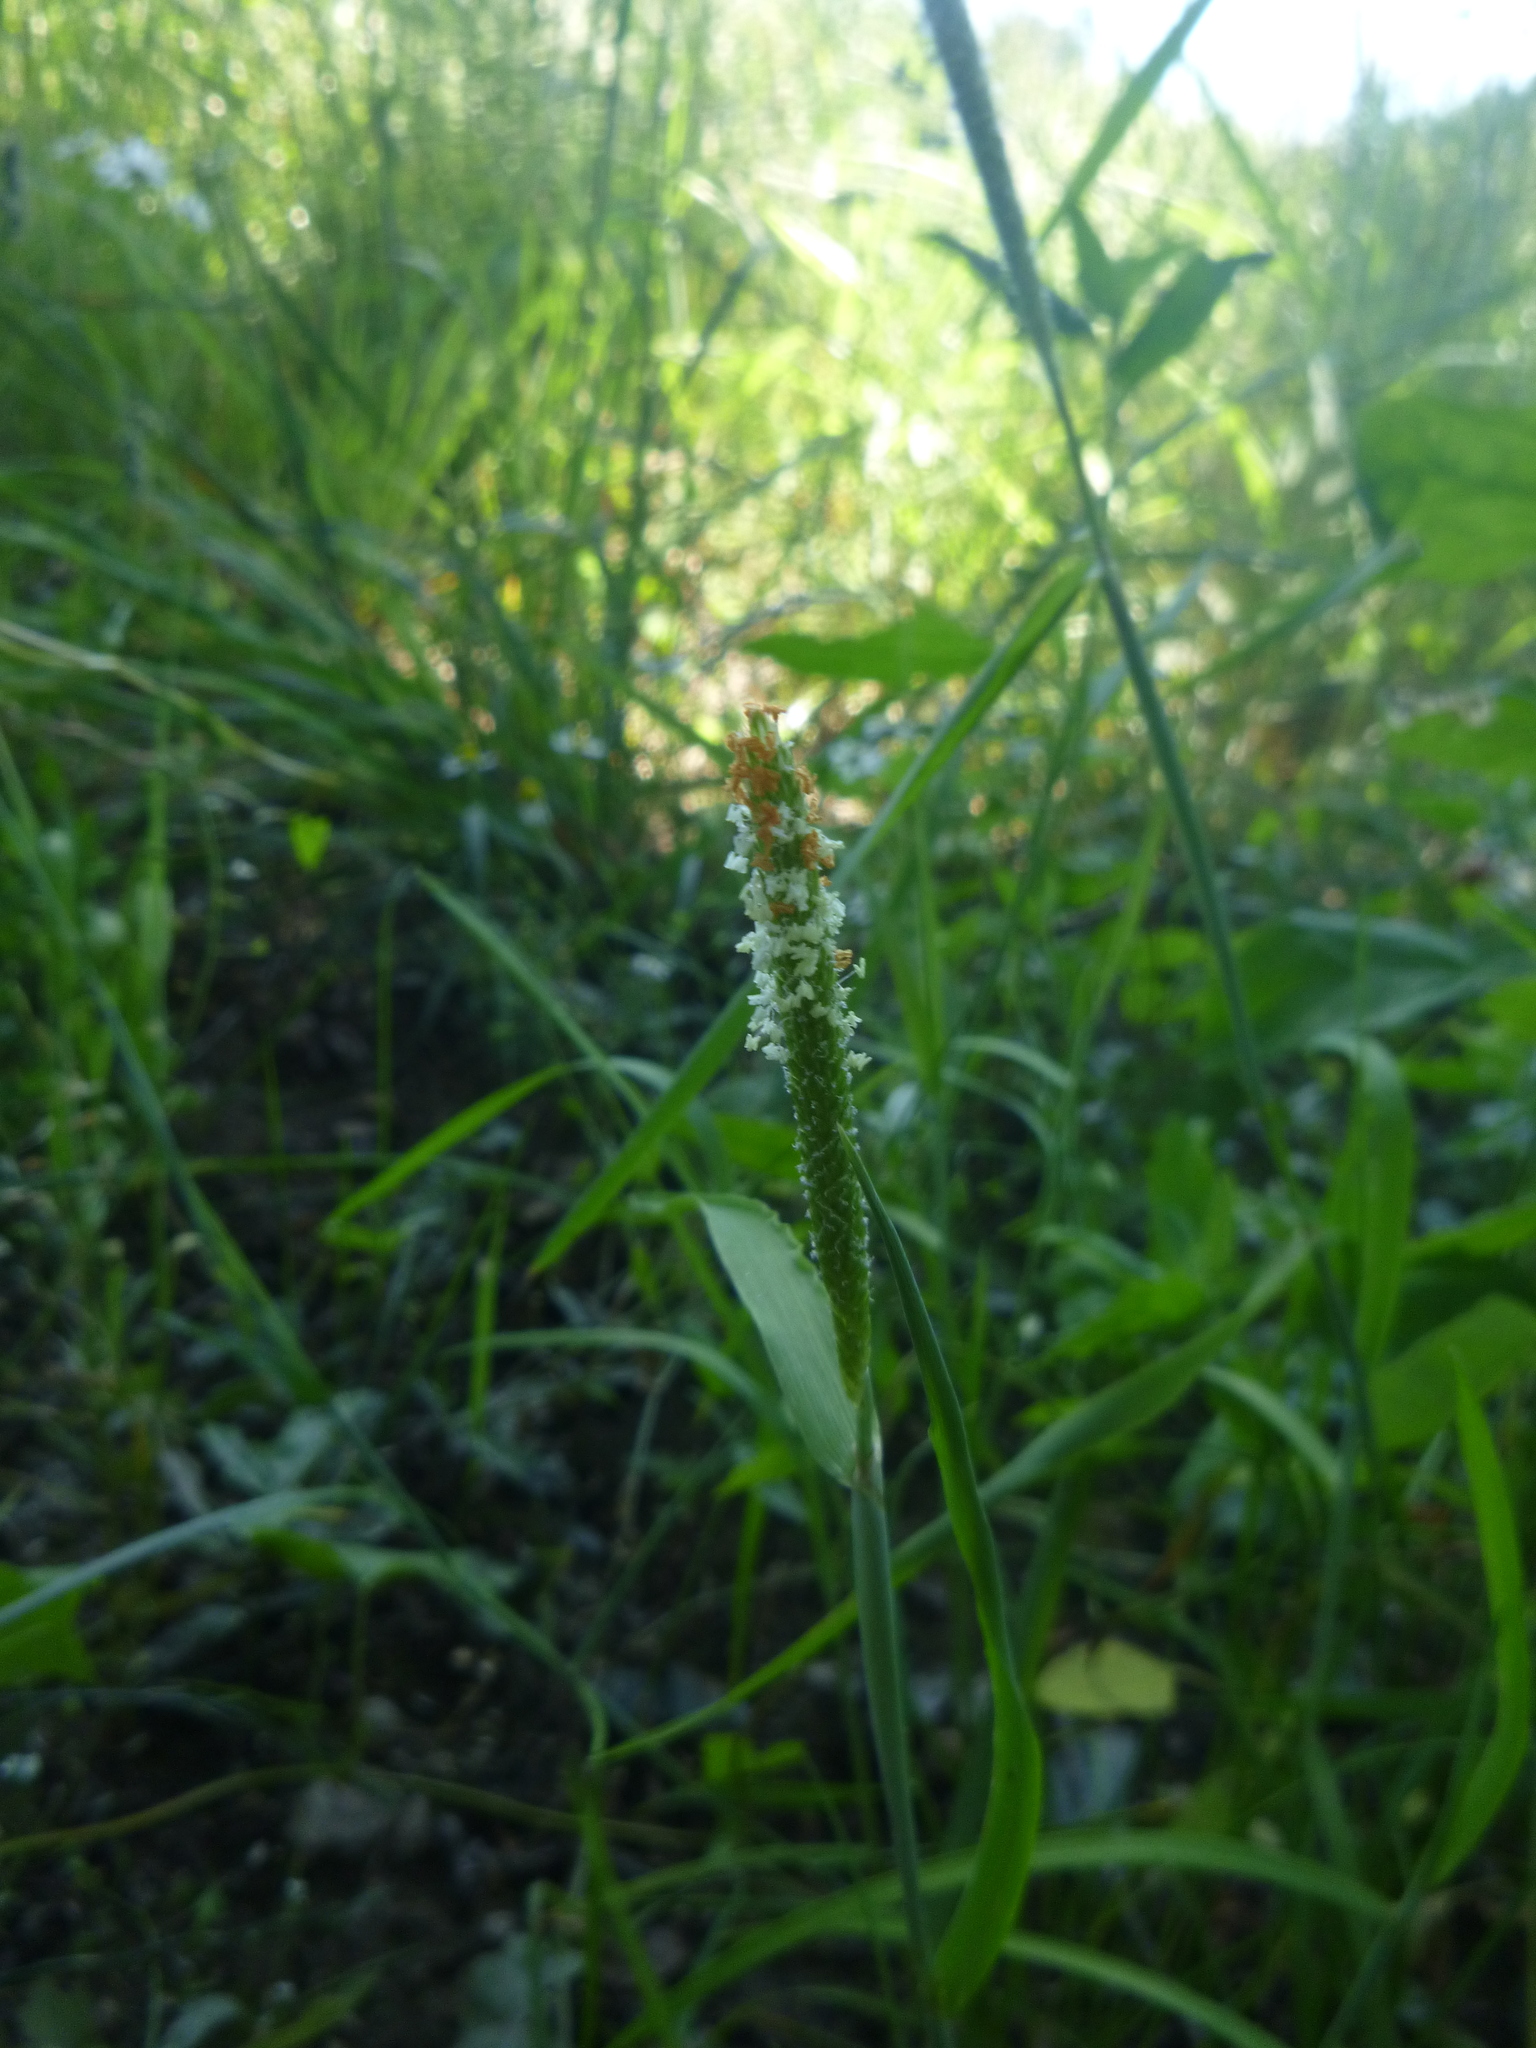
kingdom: Plantae
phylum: Tracheophyta
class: Liliopsida
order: Poales
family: Poaceae
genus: Alopecurus
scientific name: Alopecurus aequalis
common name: Orange foxtail
